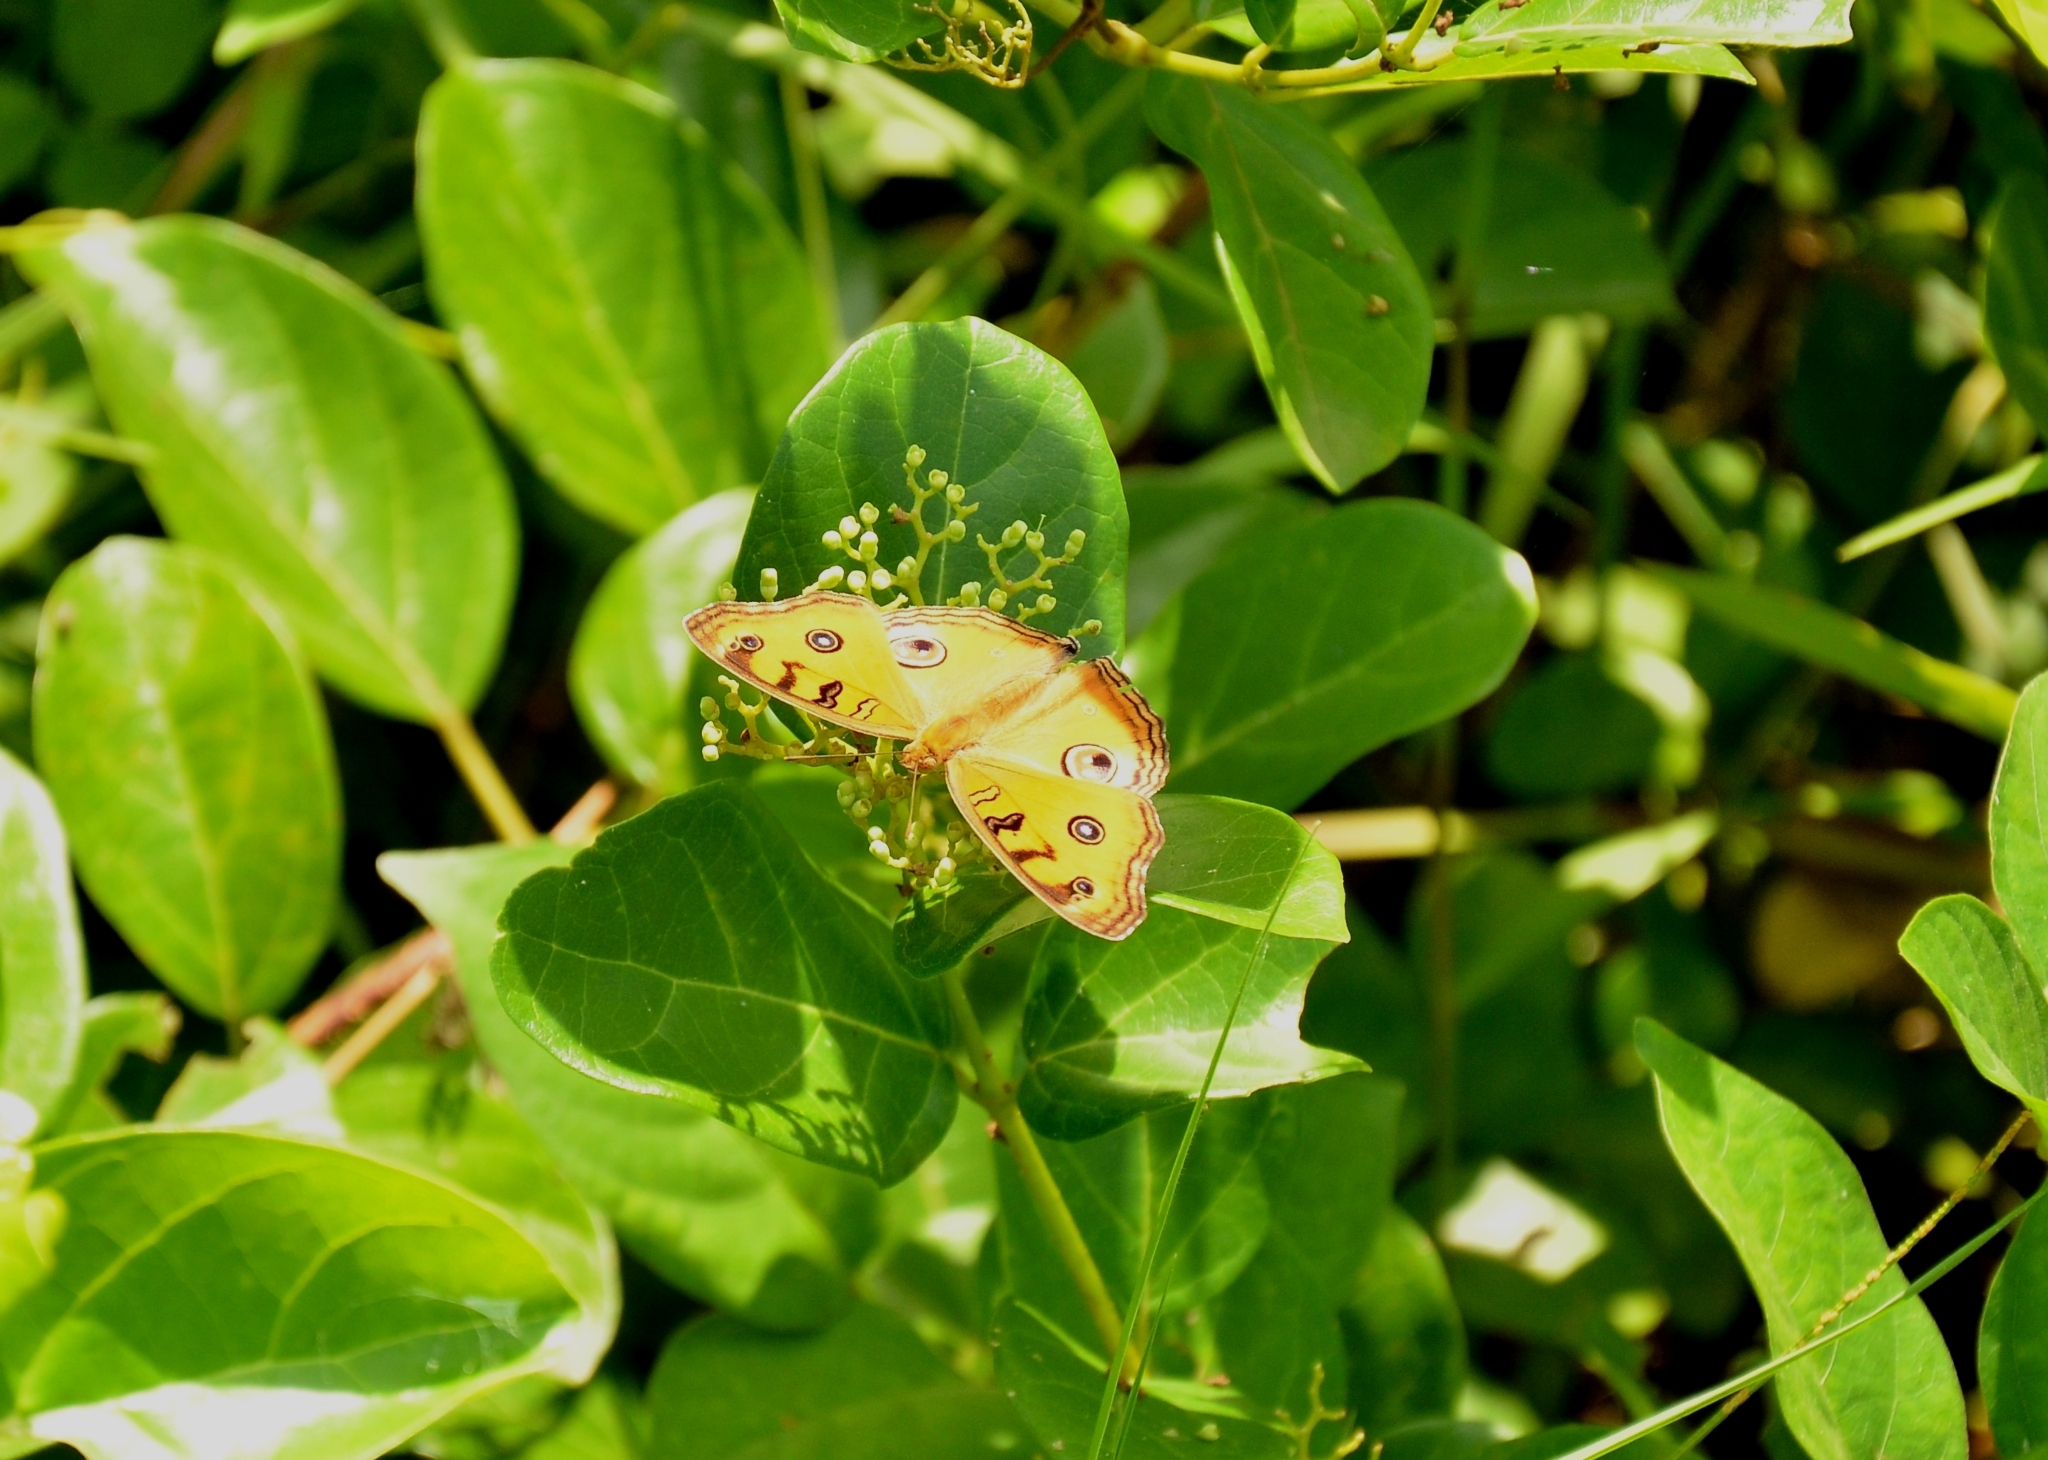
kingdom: Animalia
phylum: Arthropoda
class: Insecta
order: Lepidoptera
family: Nymphalidae
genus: Junonia
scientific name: Junonia almana
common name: Peacock pansy
